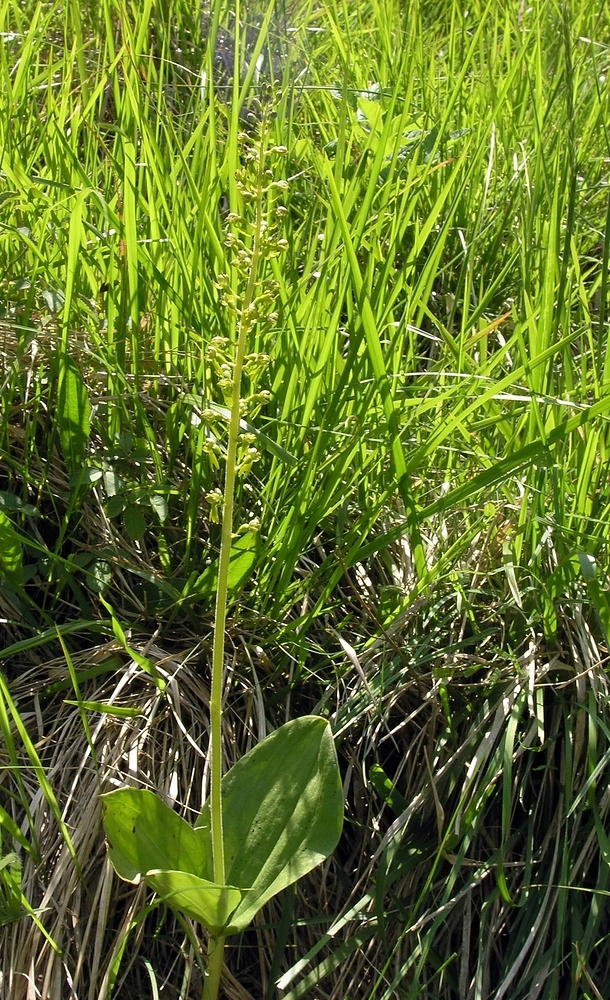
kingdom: Plantae
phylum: Tracheophyta
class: Liliopsida
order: Asparagales
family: Orchidaceae
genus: Neottia
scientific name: Neottia ovata
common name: Common twayblade
